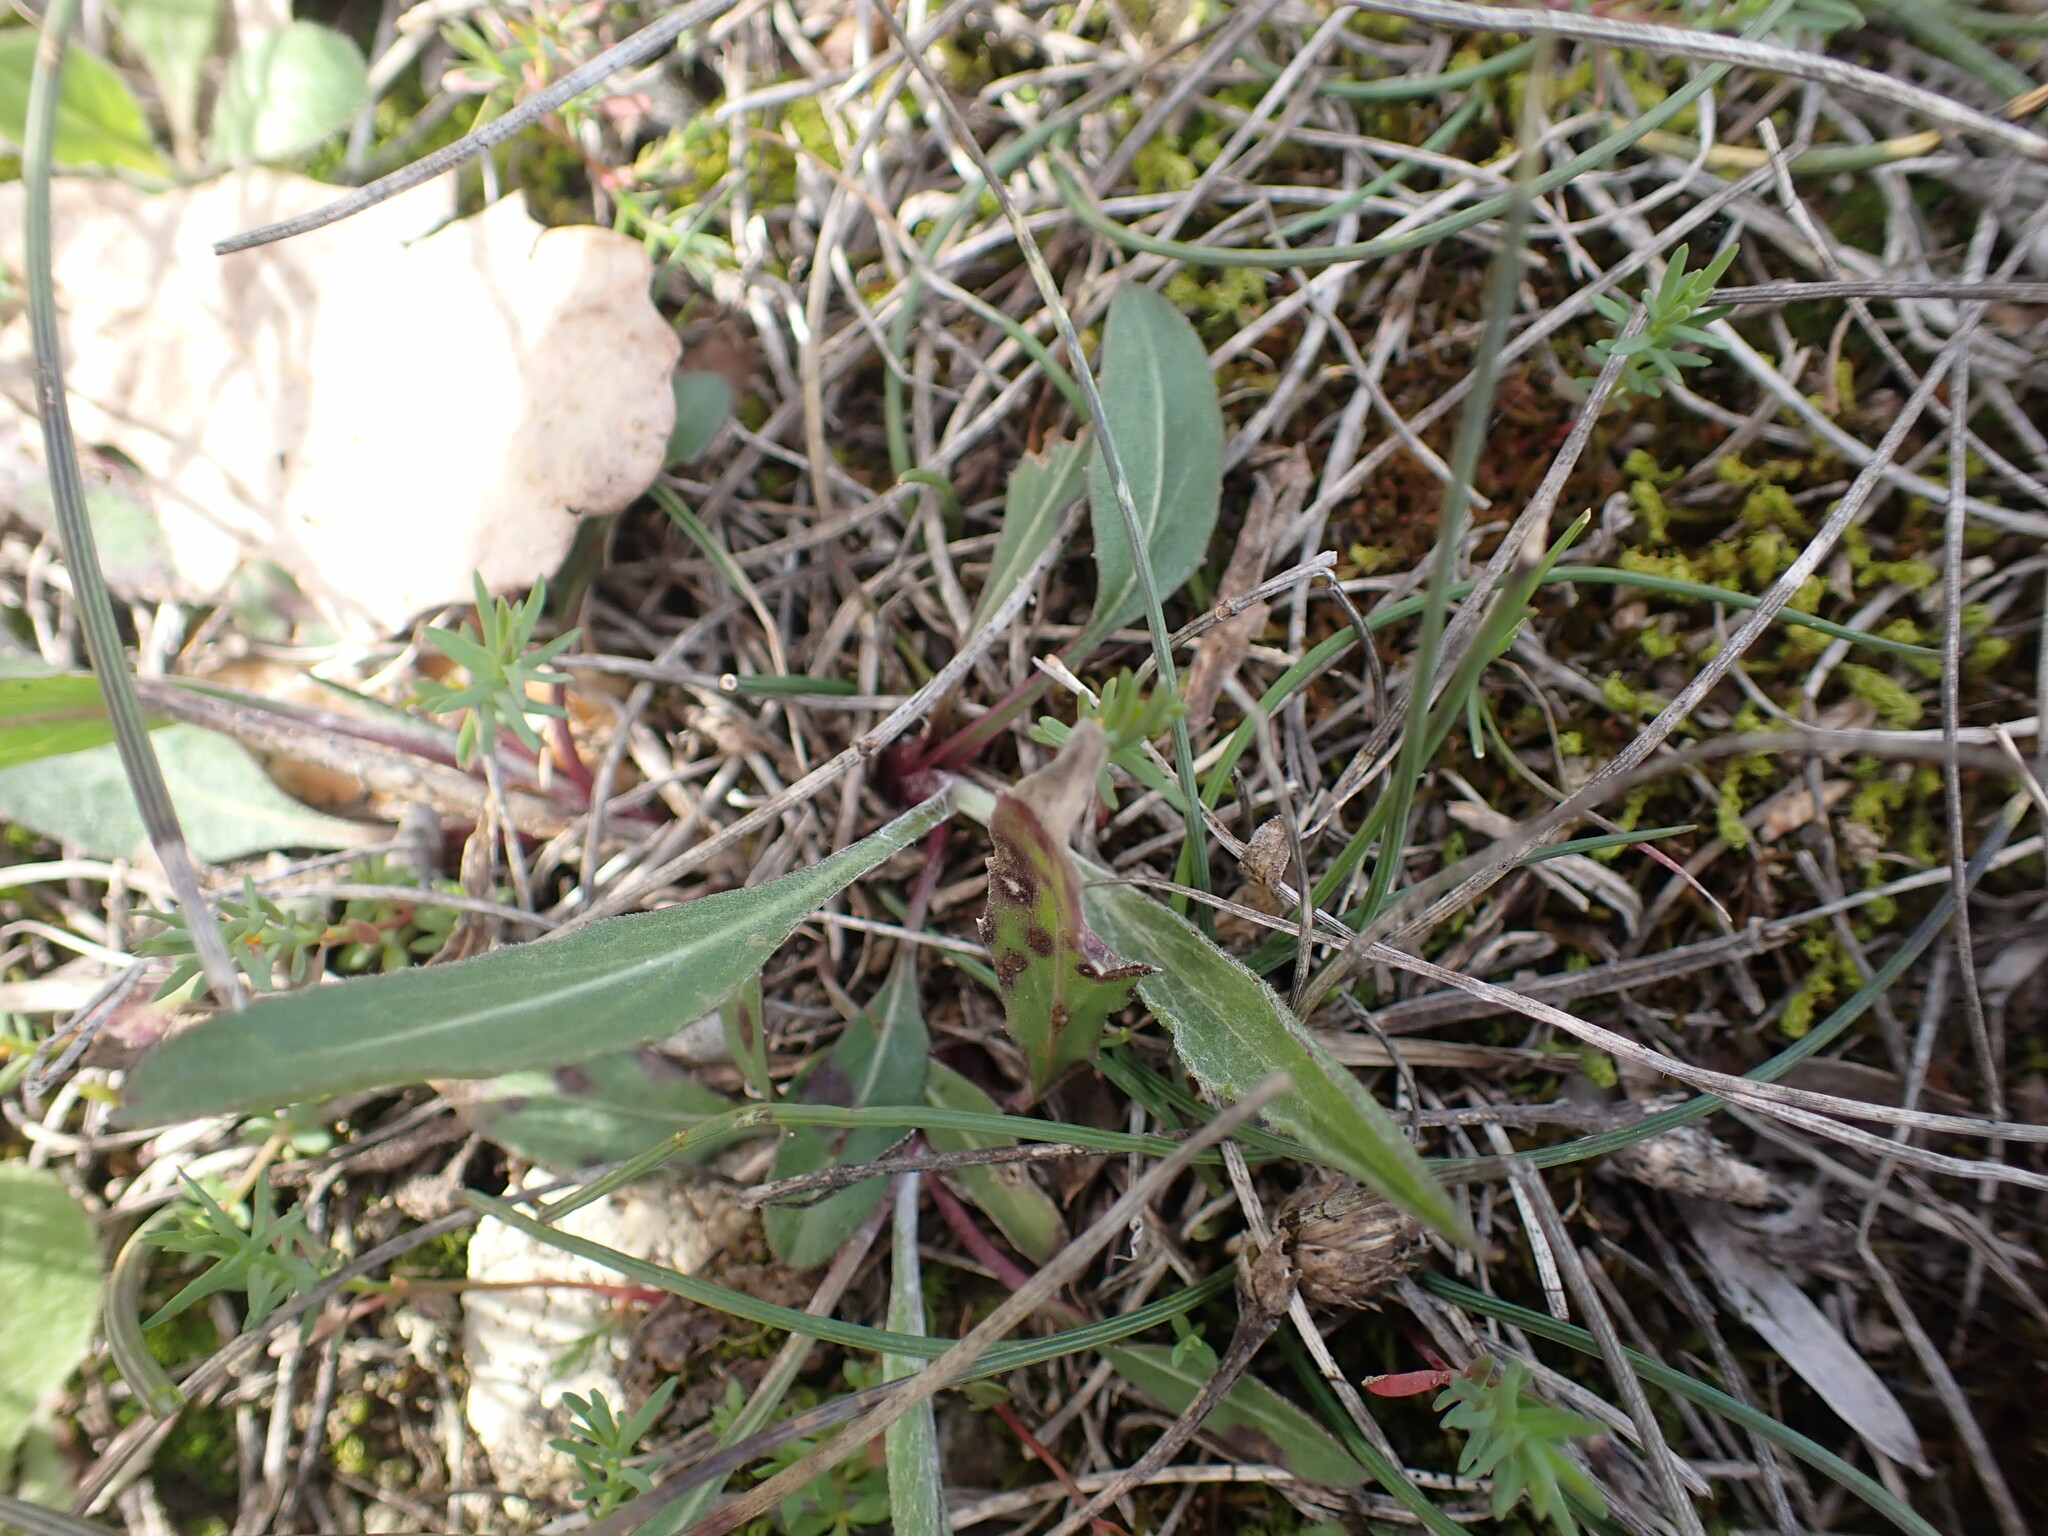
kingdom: Plantae
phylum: Tracheophyta
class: Magnoliopsida
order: Asterales
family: Asteraceae
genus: Leuzea
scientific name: Leuzea conifera
